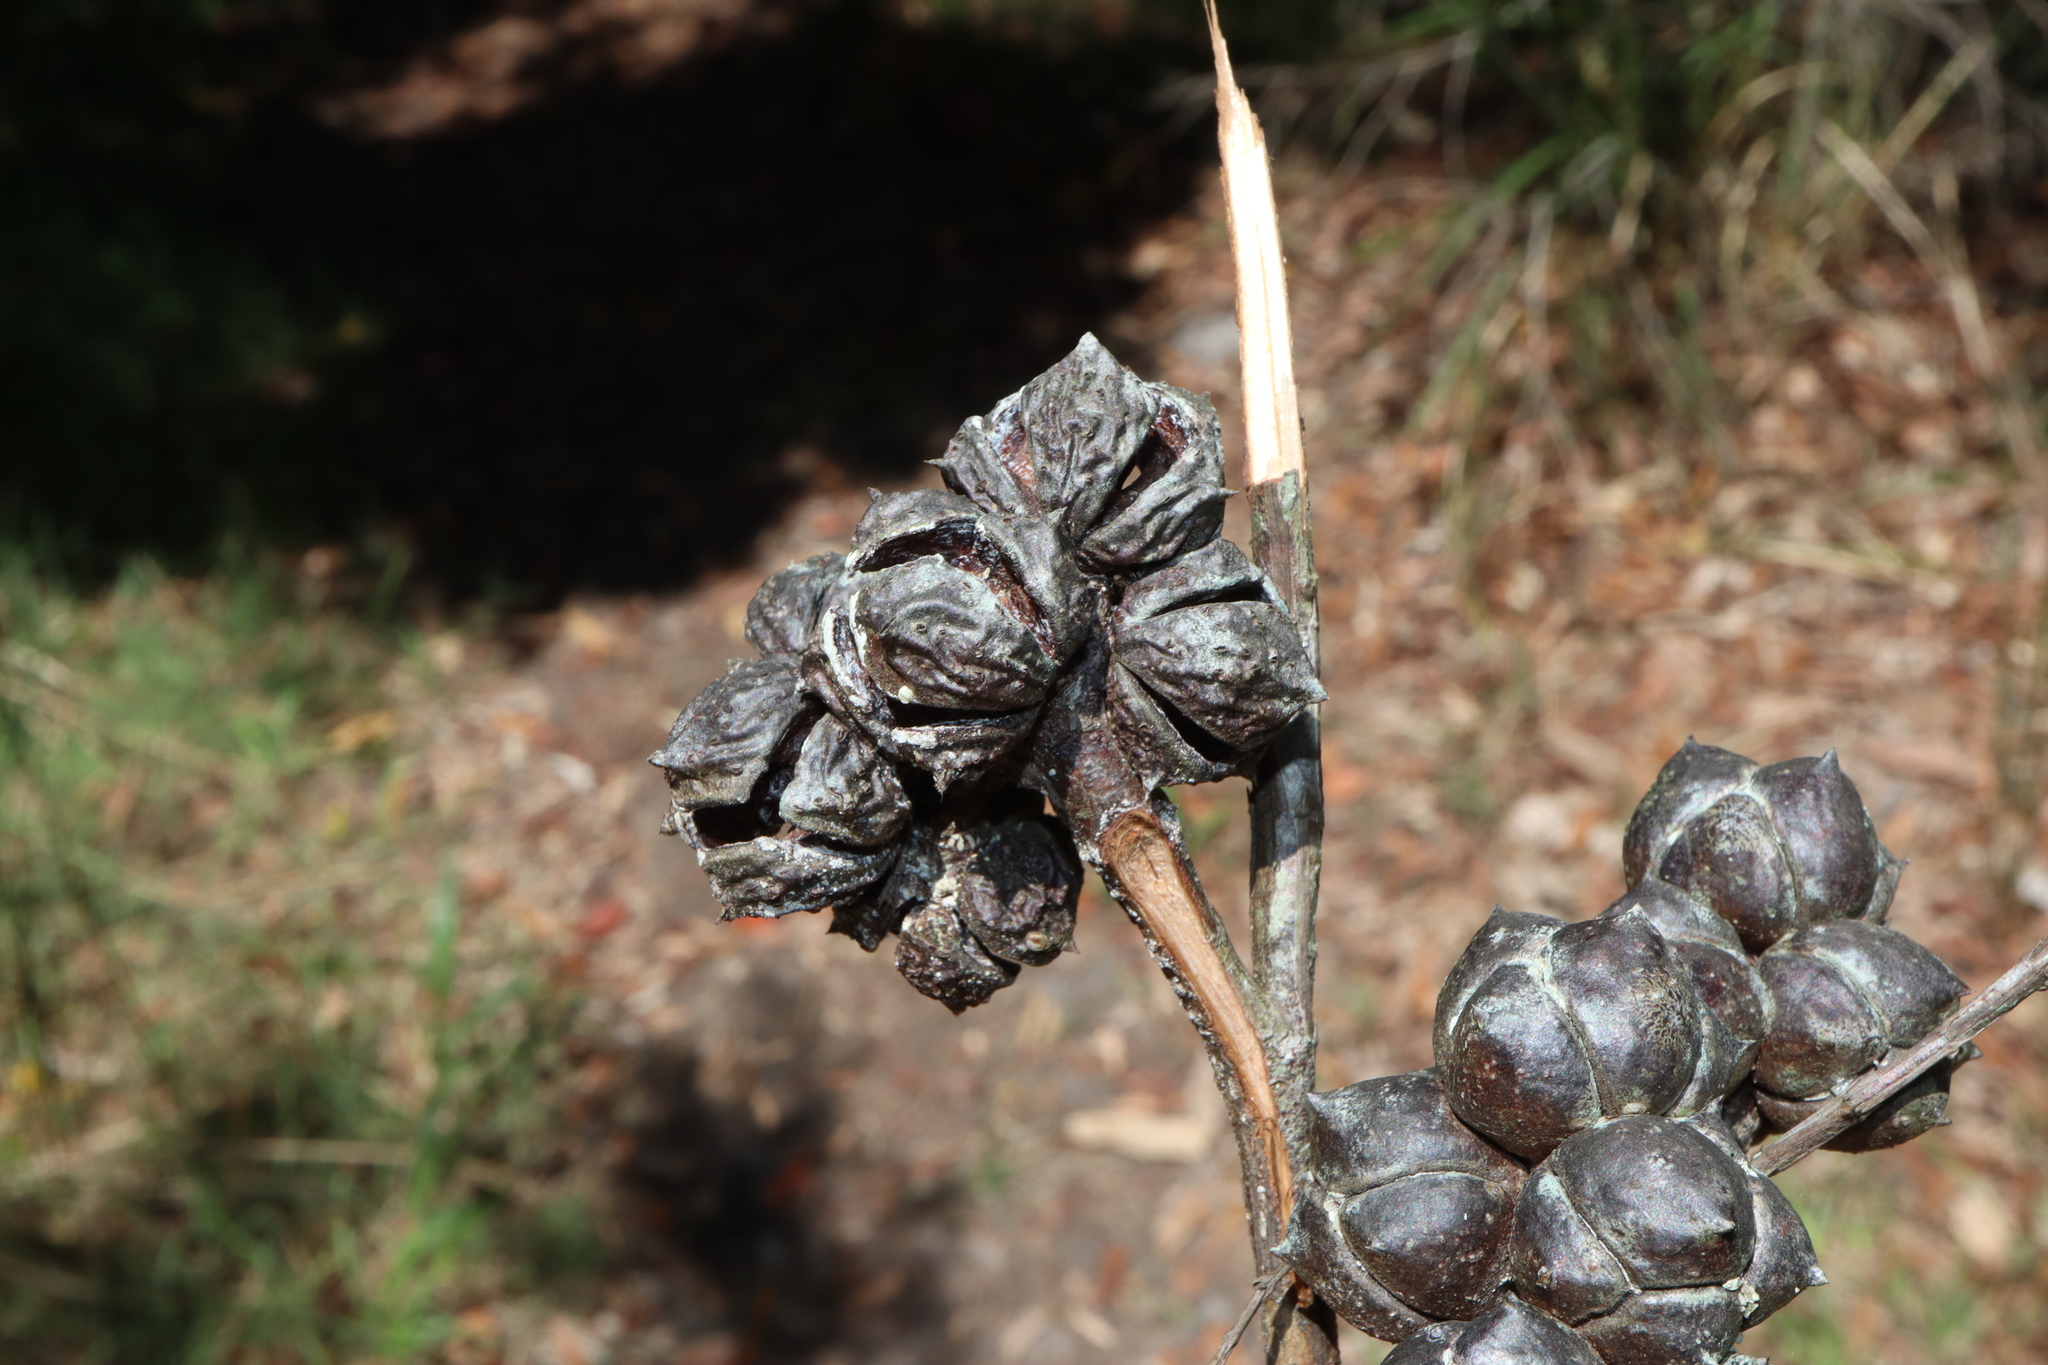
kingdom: Plantae
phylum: Tracheophyta
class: Pinopsida
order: Pinales
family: Cupressaceae
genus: Callitris
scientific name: Callitris rhomboidea
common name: Illawara mountain pine
